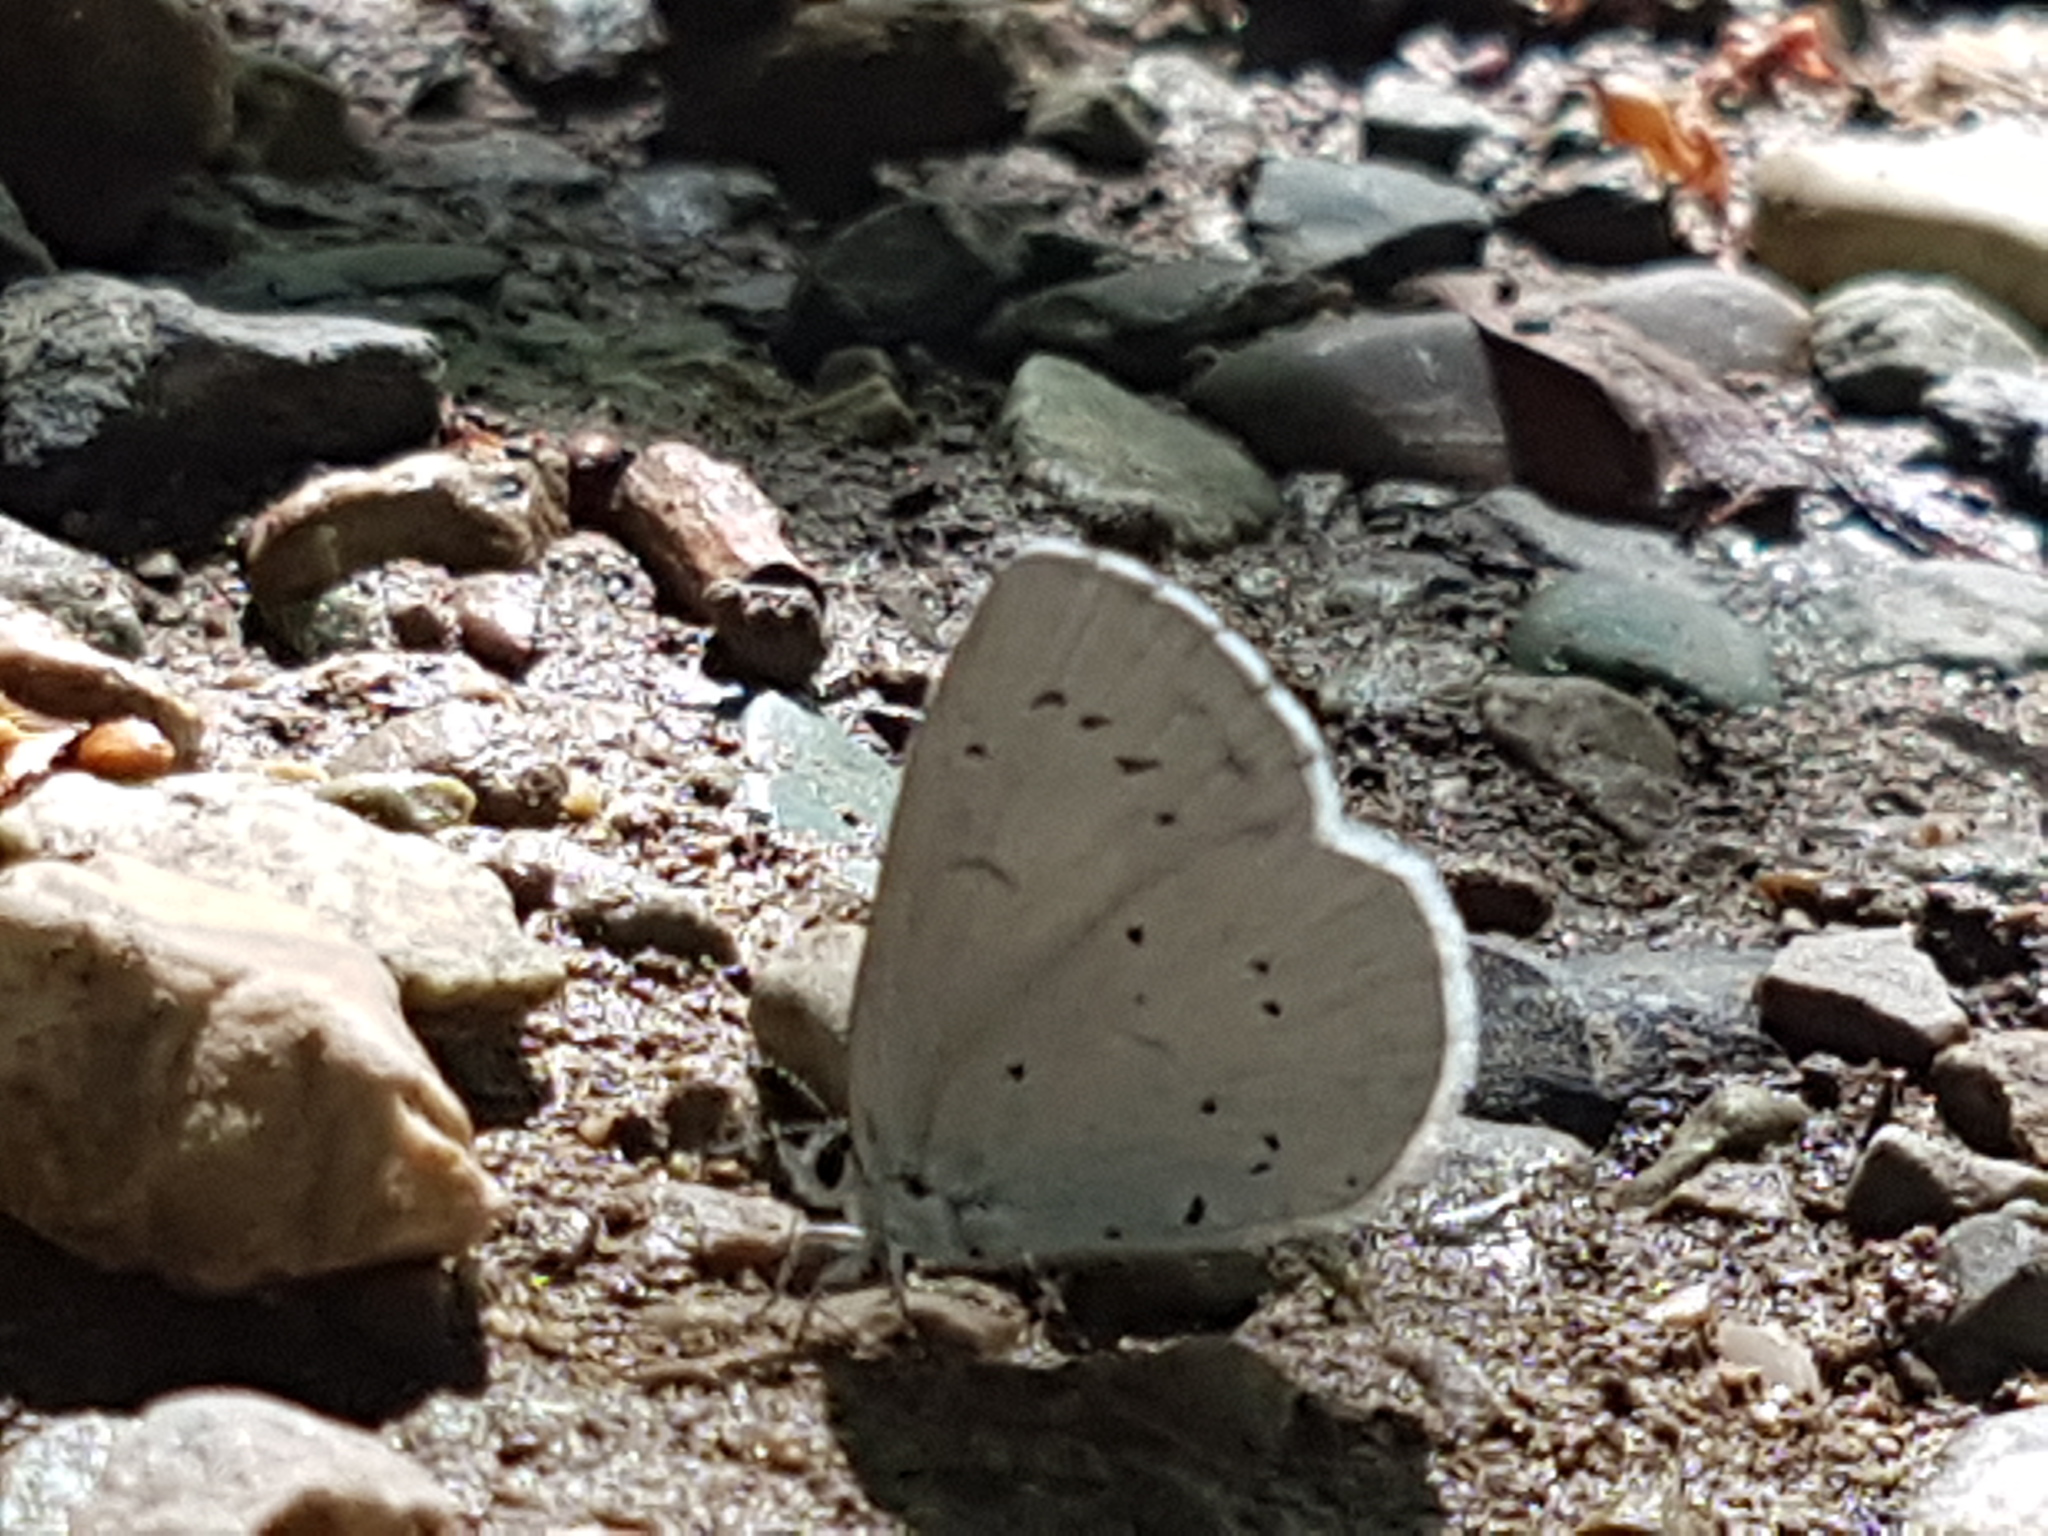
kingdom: Animalia
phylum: Arthropoda
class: Insecta
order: Lepidoptera
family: Lycaenidae
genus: Celastrina
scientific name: Celastrina argiolus
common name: Holly blue
